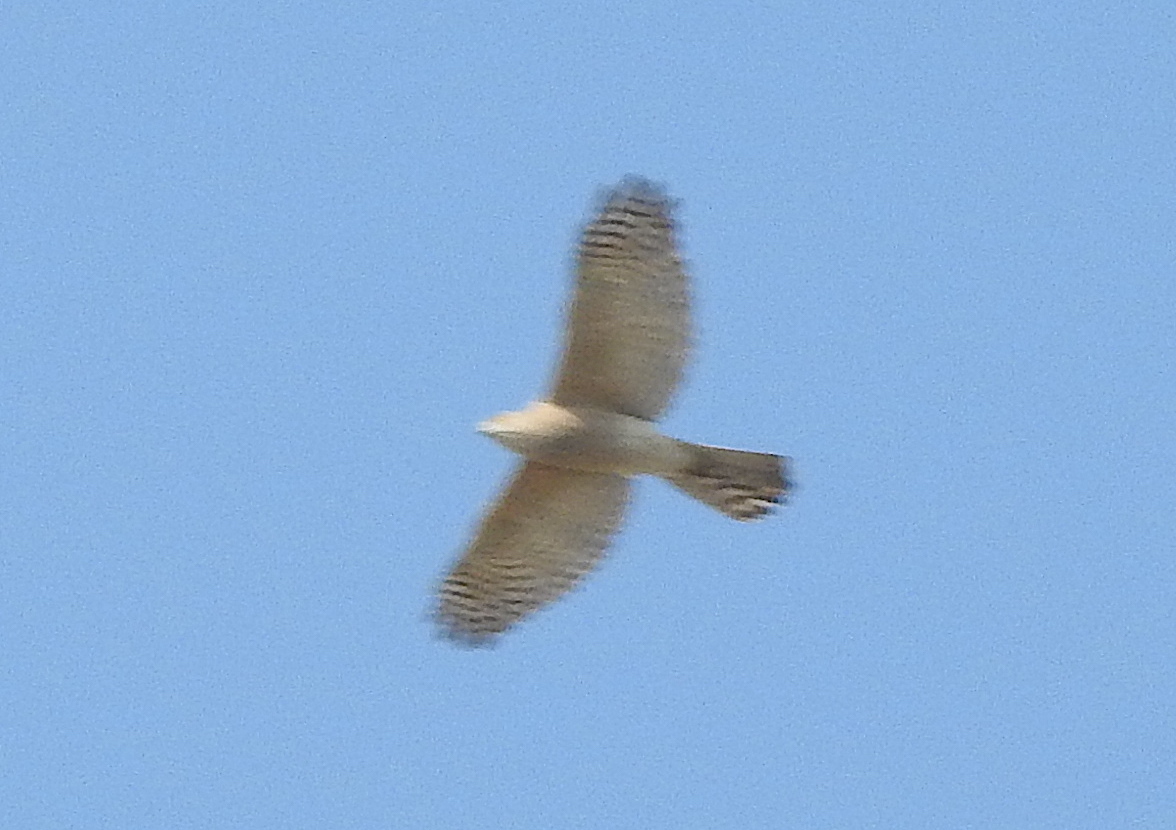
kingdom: Animalia
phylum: Chordata
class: Aves
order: Accipitriformes
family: Accipitridae
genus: Accipiter
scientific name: Accipiter badius
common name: Shikra
